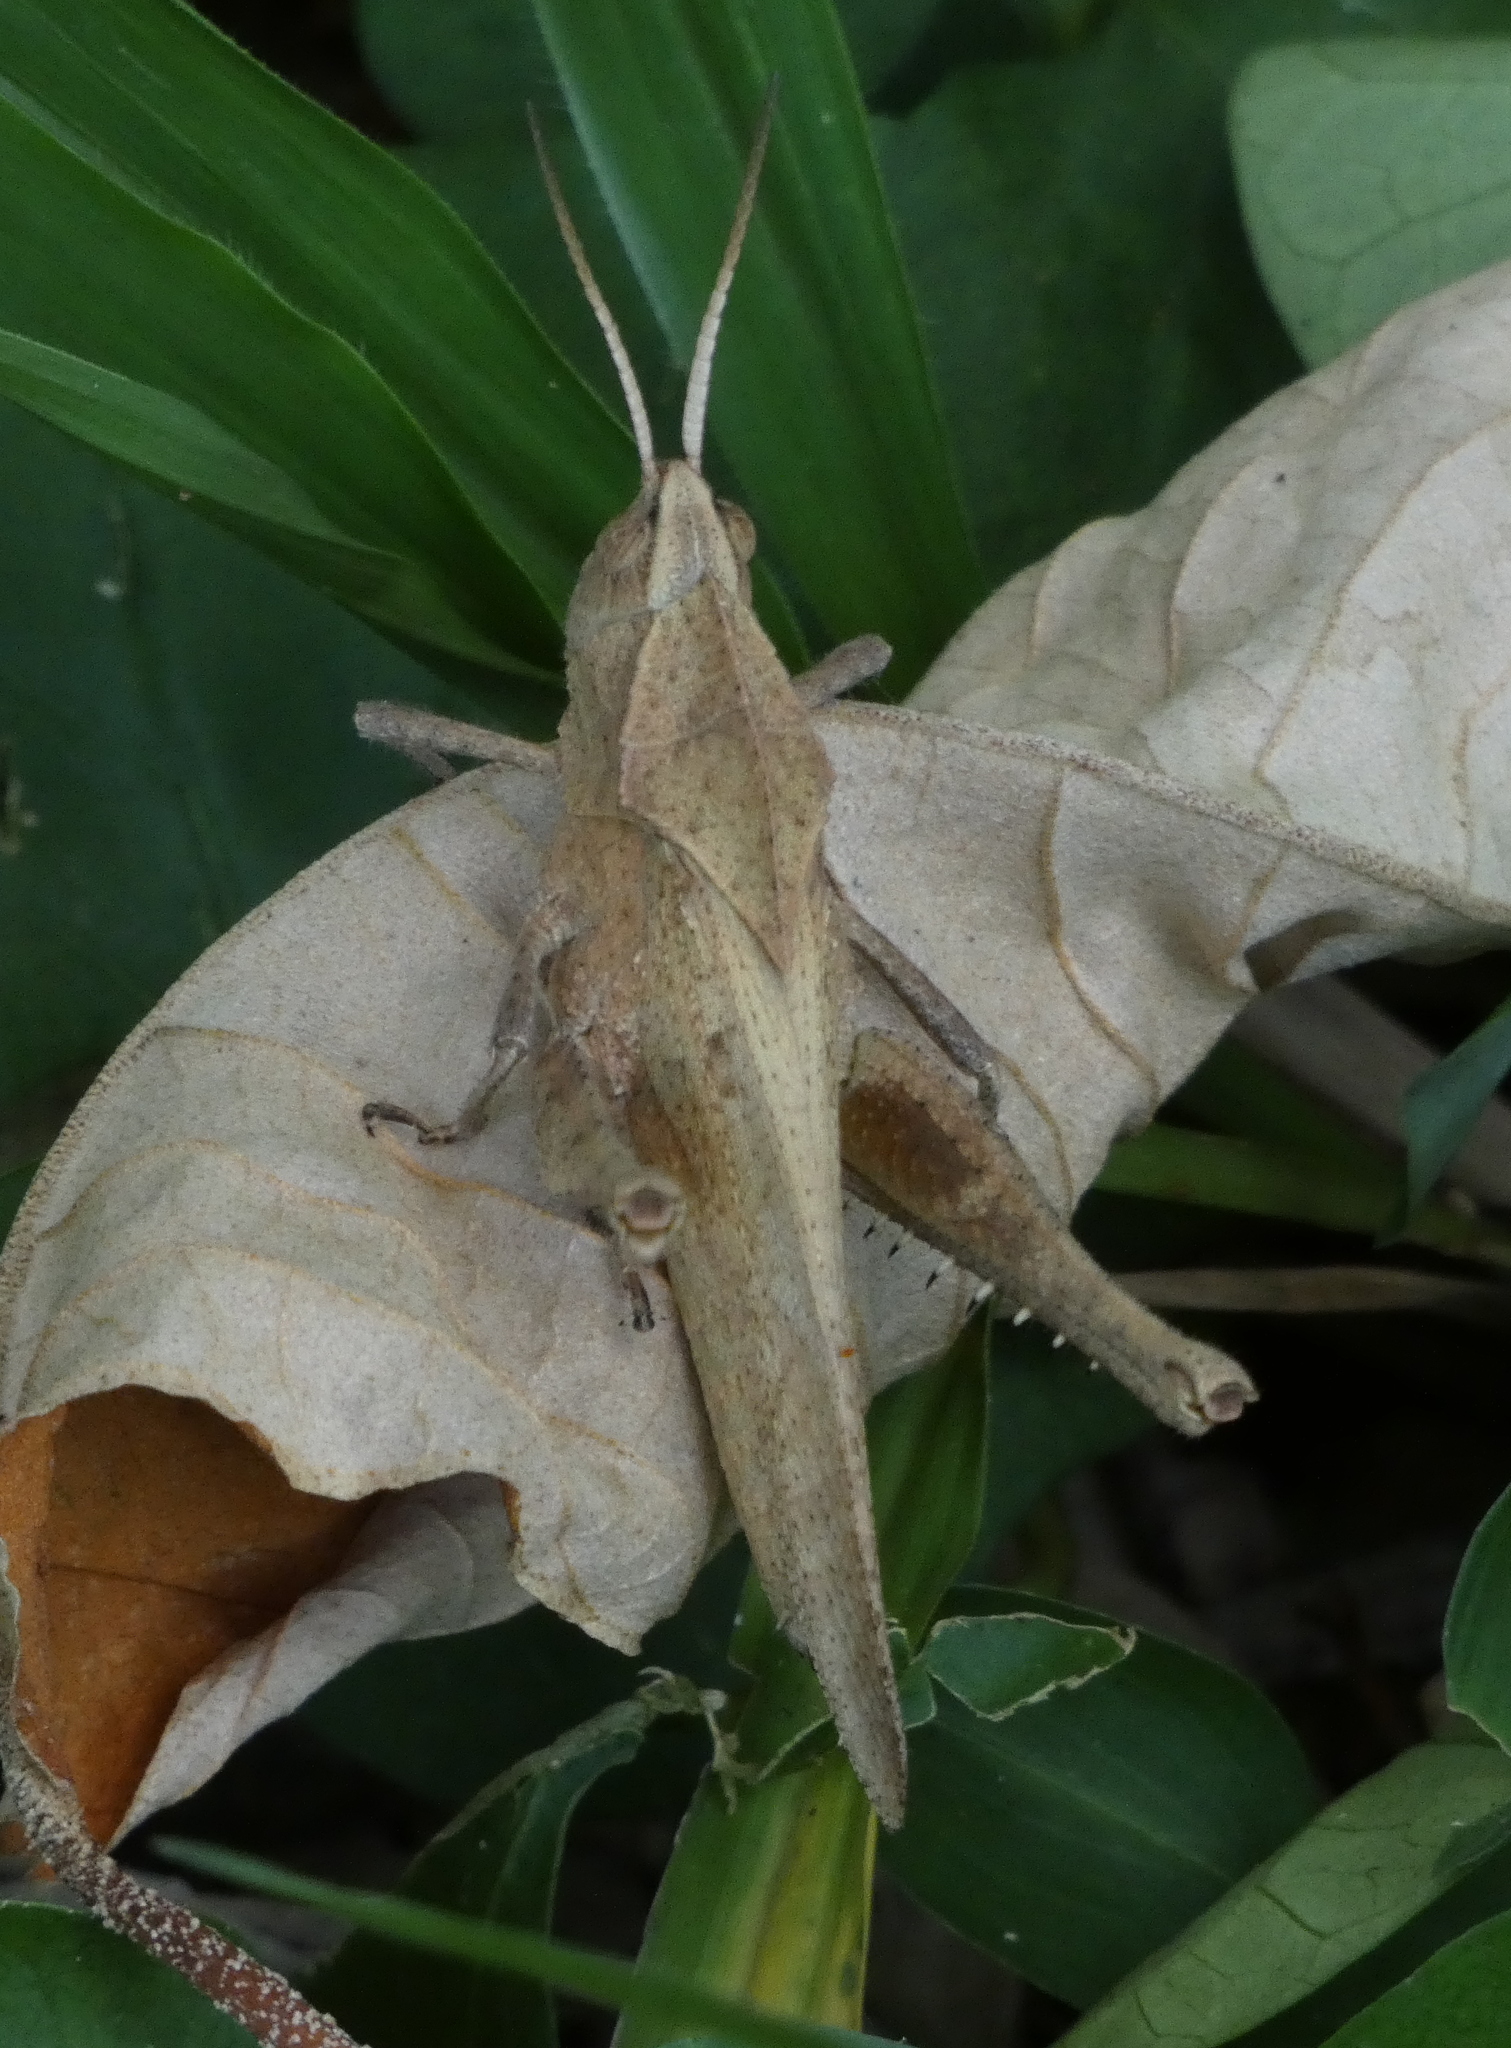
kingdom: Animalia
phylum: Arthropoda
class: Insecta
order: Orthoptera
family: Romaleidae
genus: Xyleus
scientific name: Xyleus discoideus
